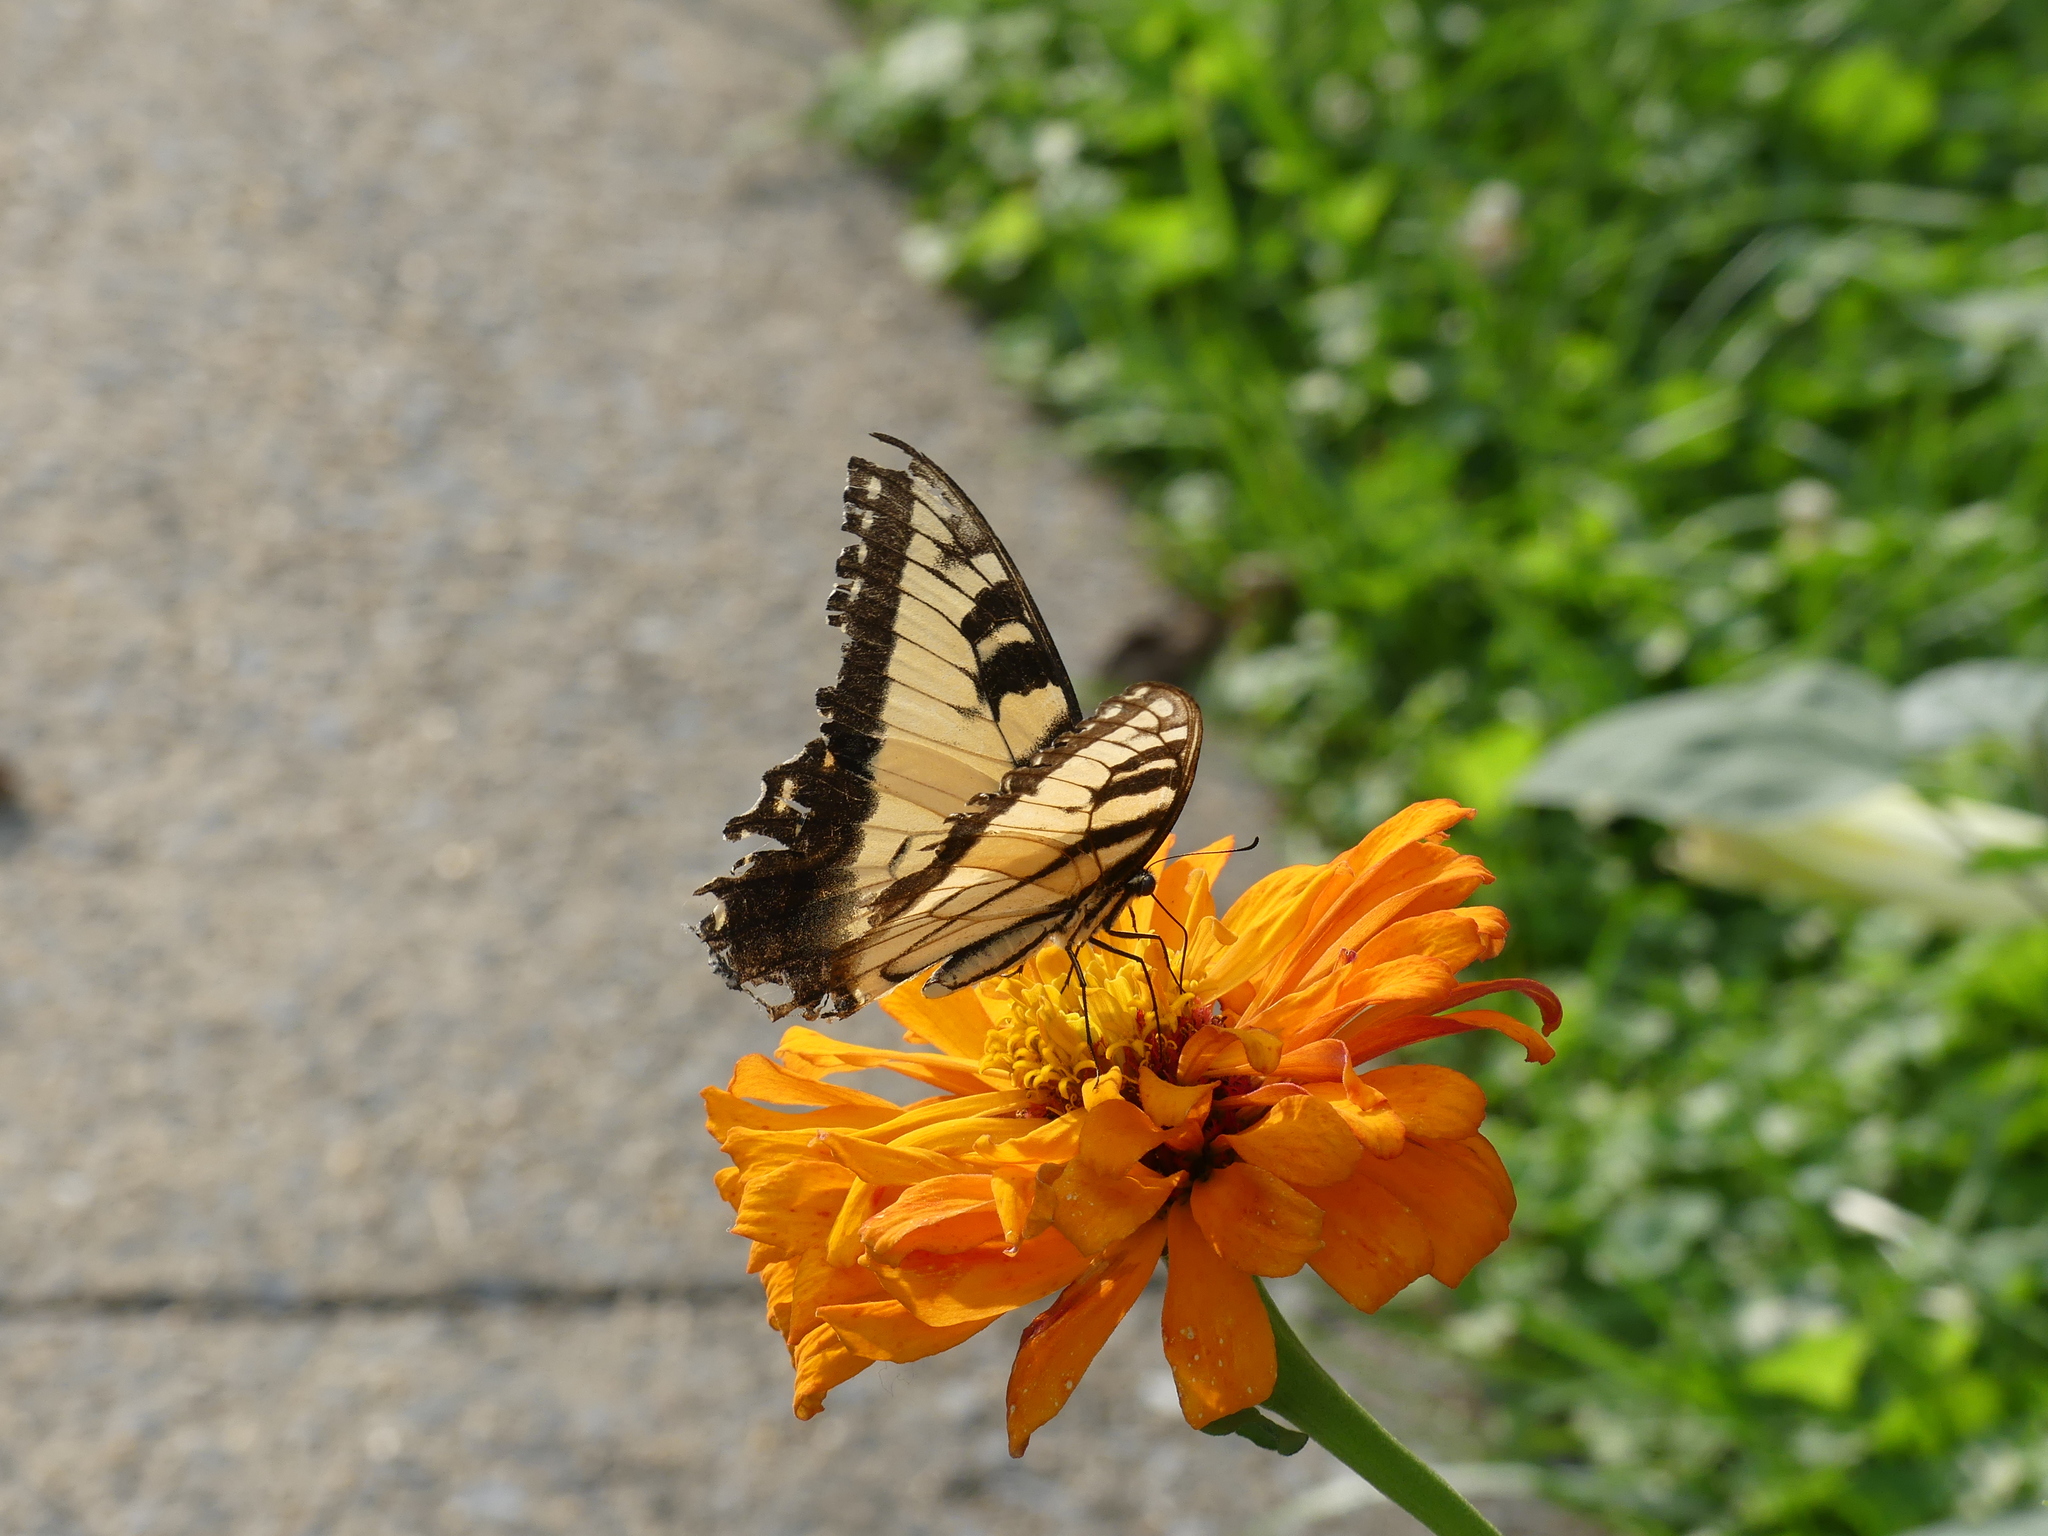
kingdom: Animalia
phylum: Arthropoda
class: Insecta
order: Lepidoptera
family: Papilionidae
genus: Papilio
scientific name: Papilio glaucus
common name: Tiger swallowtail
